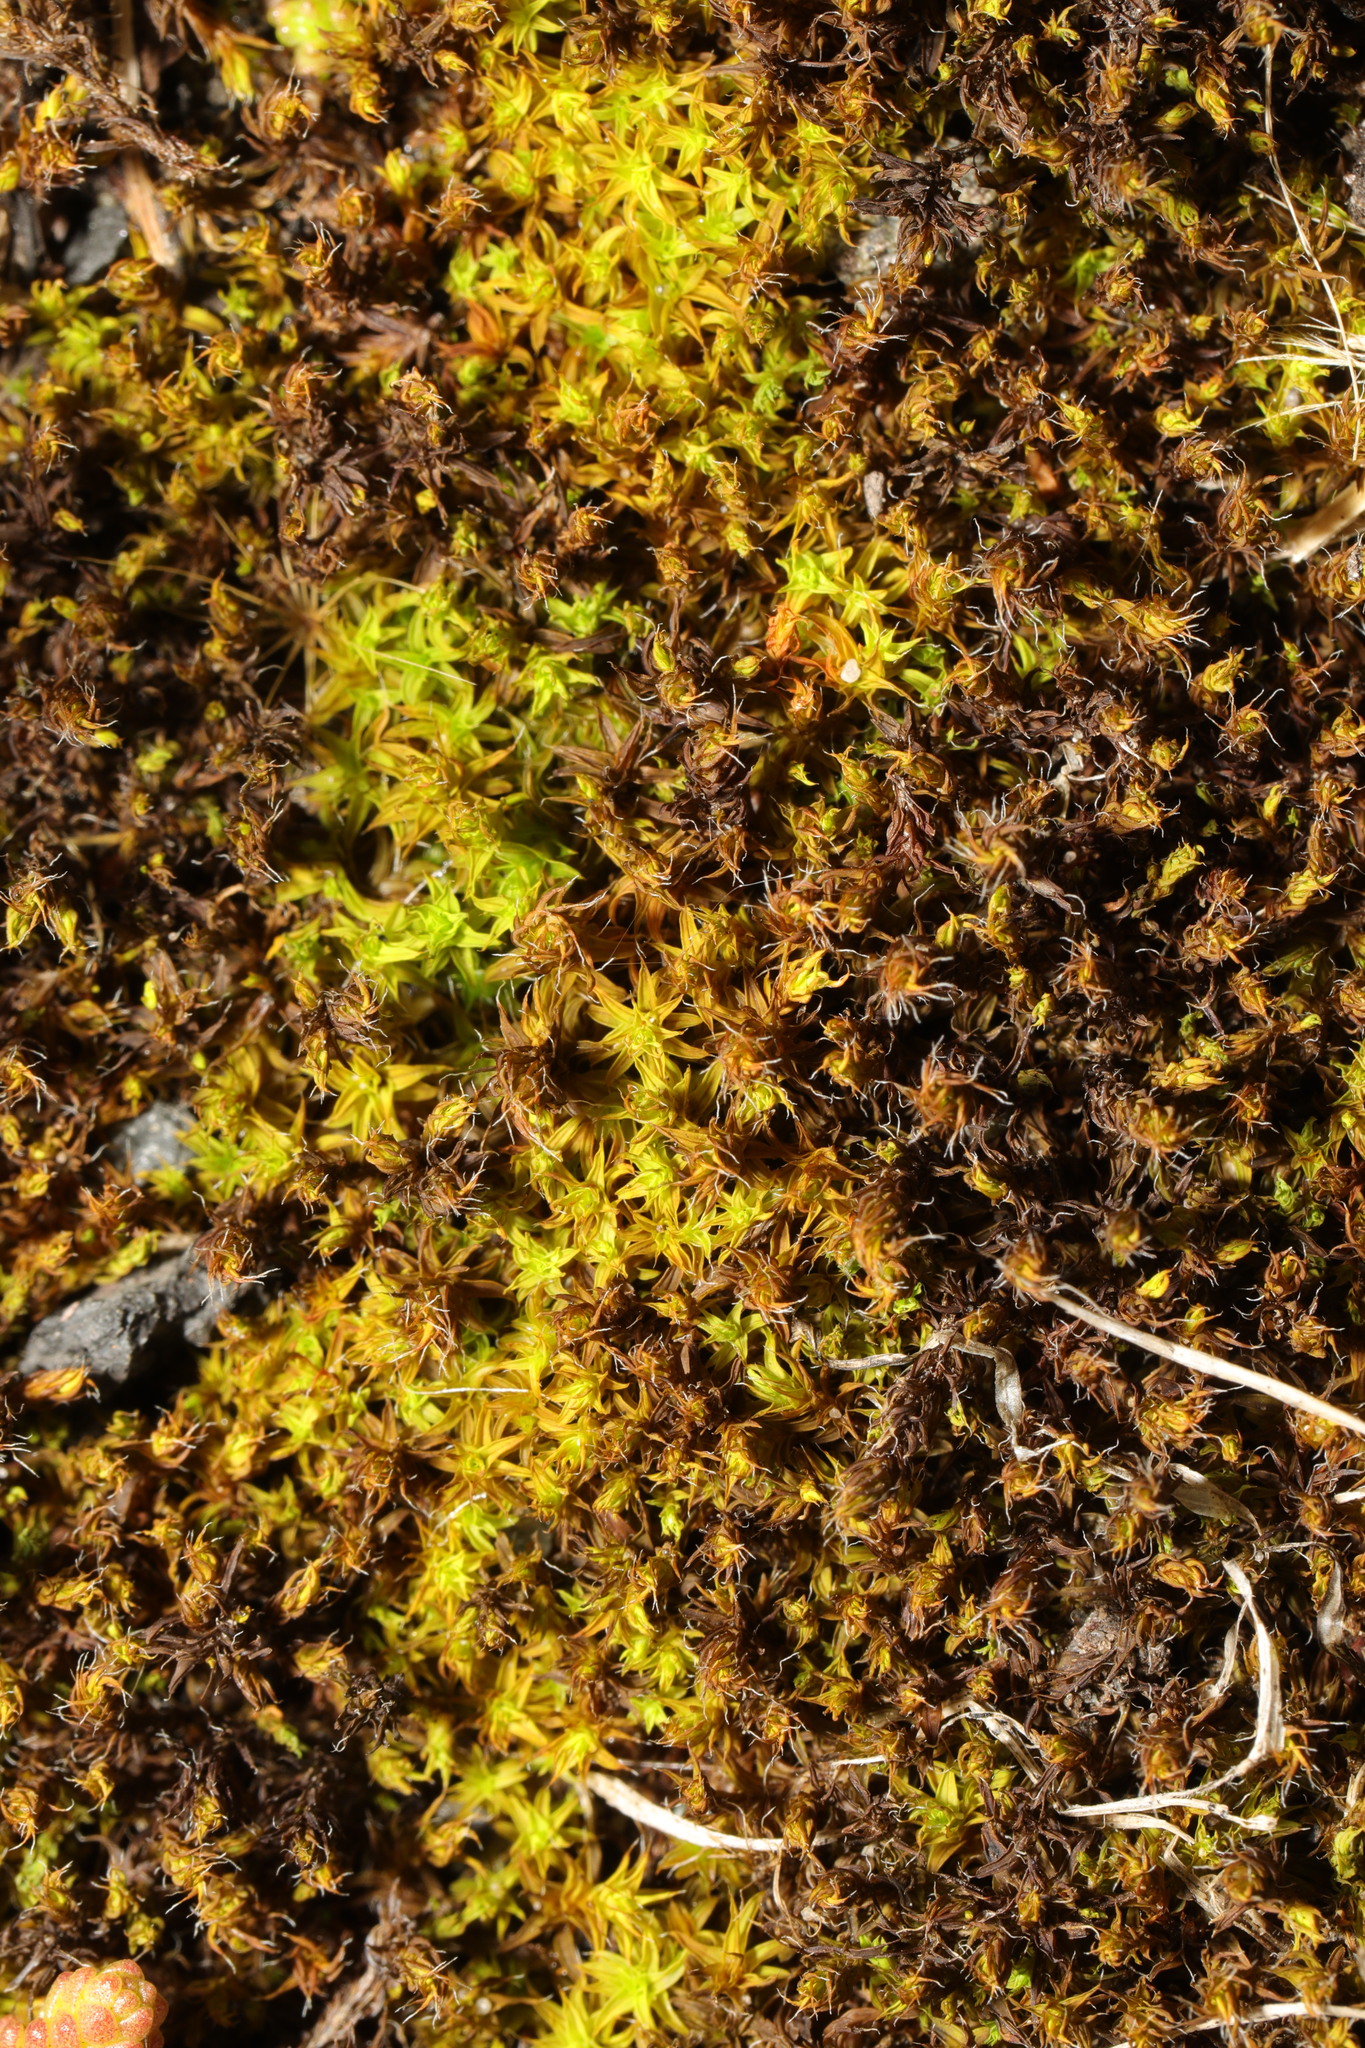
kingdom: Plantae
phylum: Bryophyta
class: Bryopsida
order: Pottiales
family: Pottiaceae
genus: Syntrichia
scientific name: Syntrichia ruralis
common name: Sidewalk screw moss
